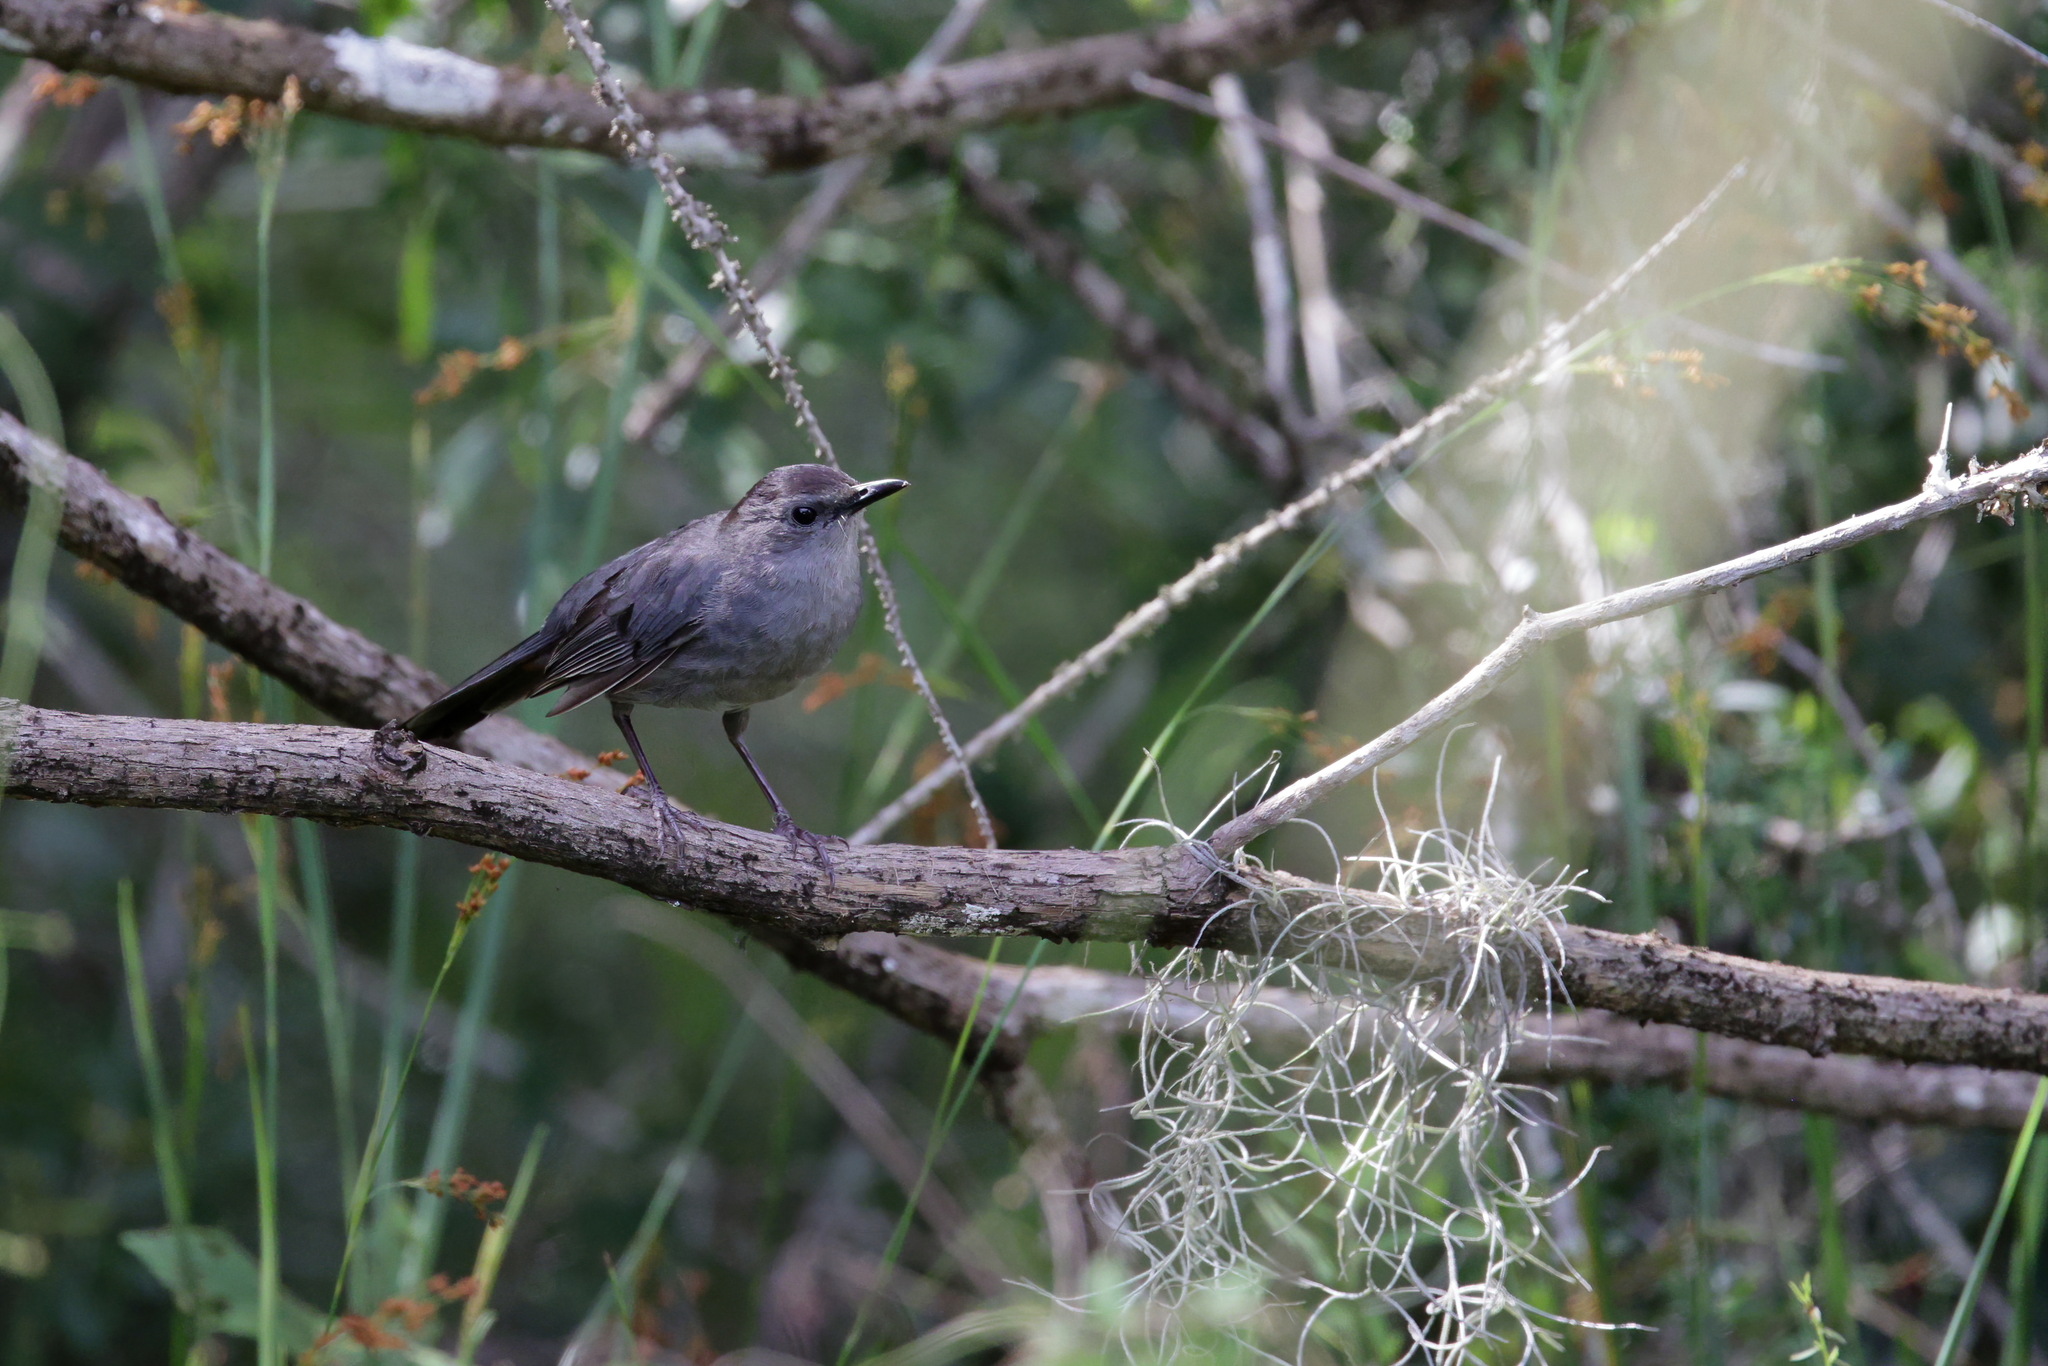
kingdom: Animalia
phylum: Chordata
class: Aves
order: Passeriformes
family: Mimidae
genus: Dumetella
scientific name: Dumetella carolinensis
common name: Gray catbird
